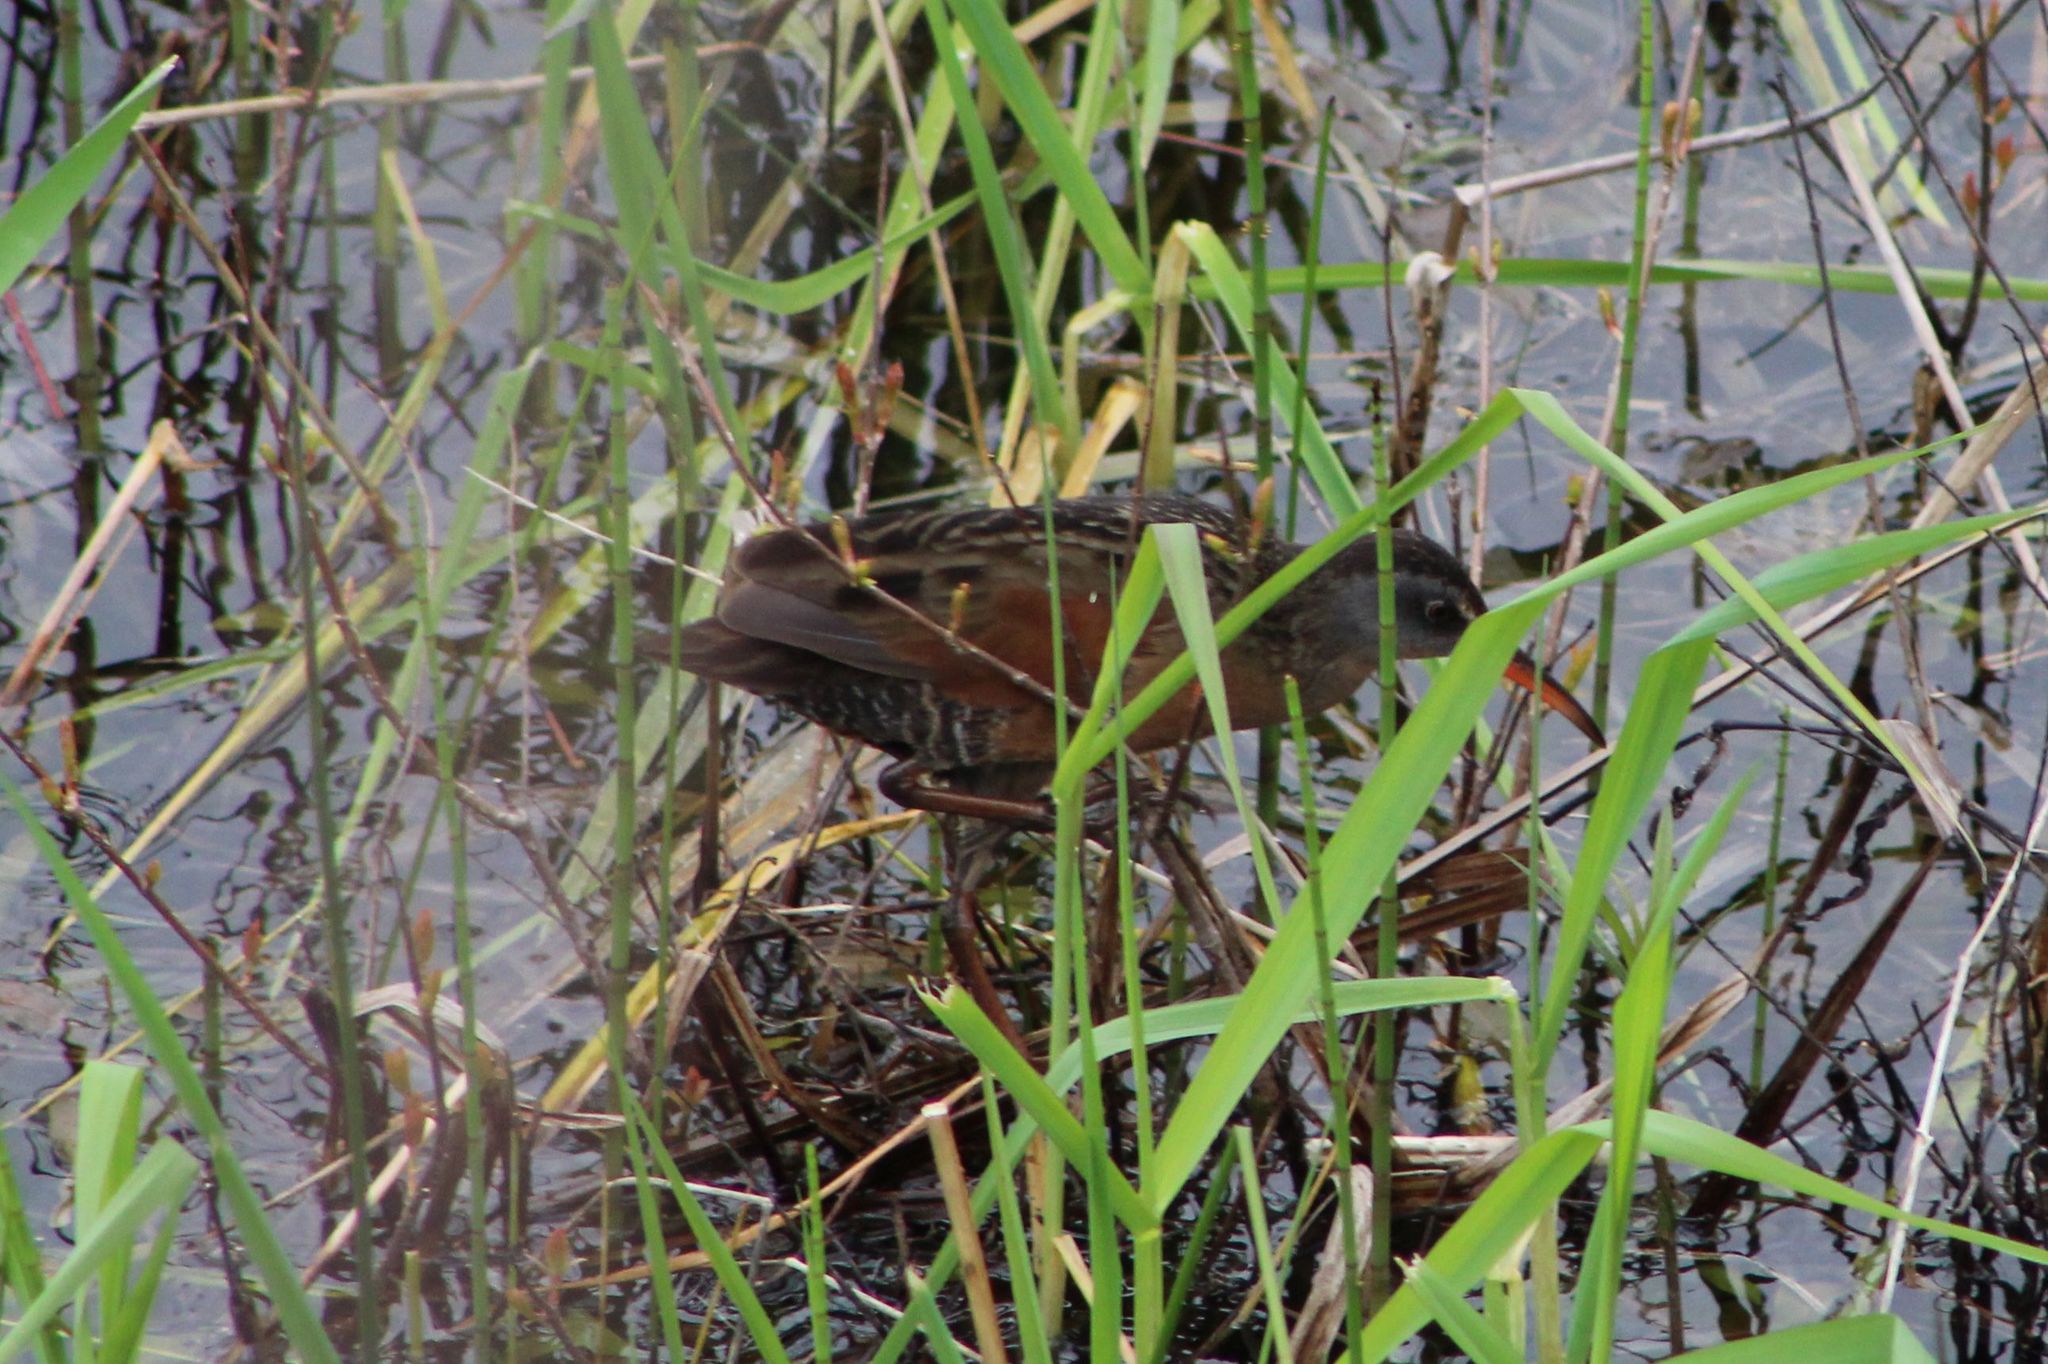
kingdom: Animalia
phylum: Chordata
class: Aves
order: Gruiformes
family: Rallidae
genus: Rallus
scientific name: Rallus limicola
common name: Virginia rail
